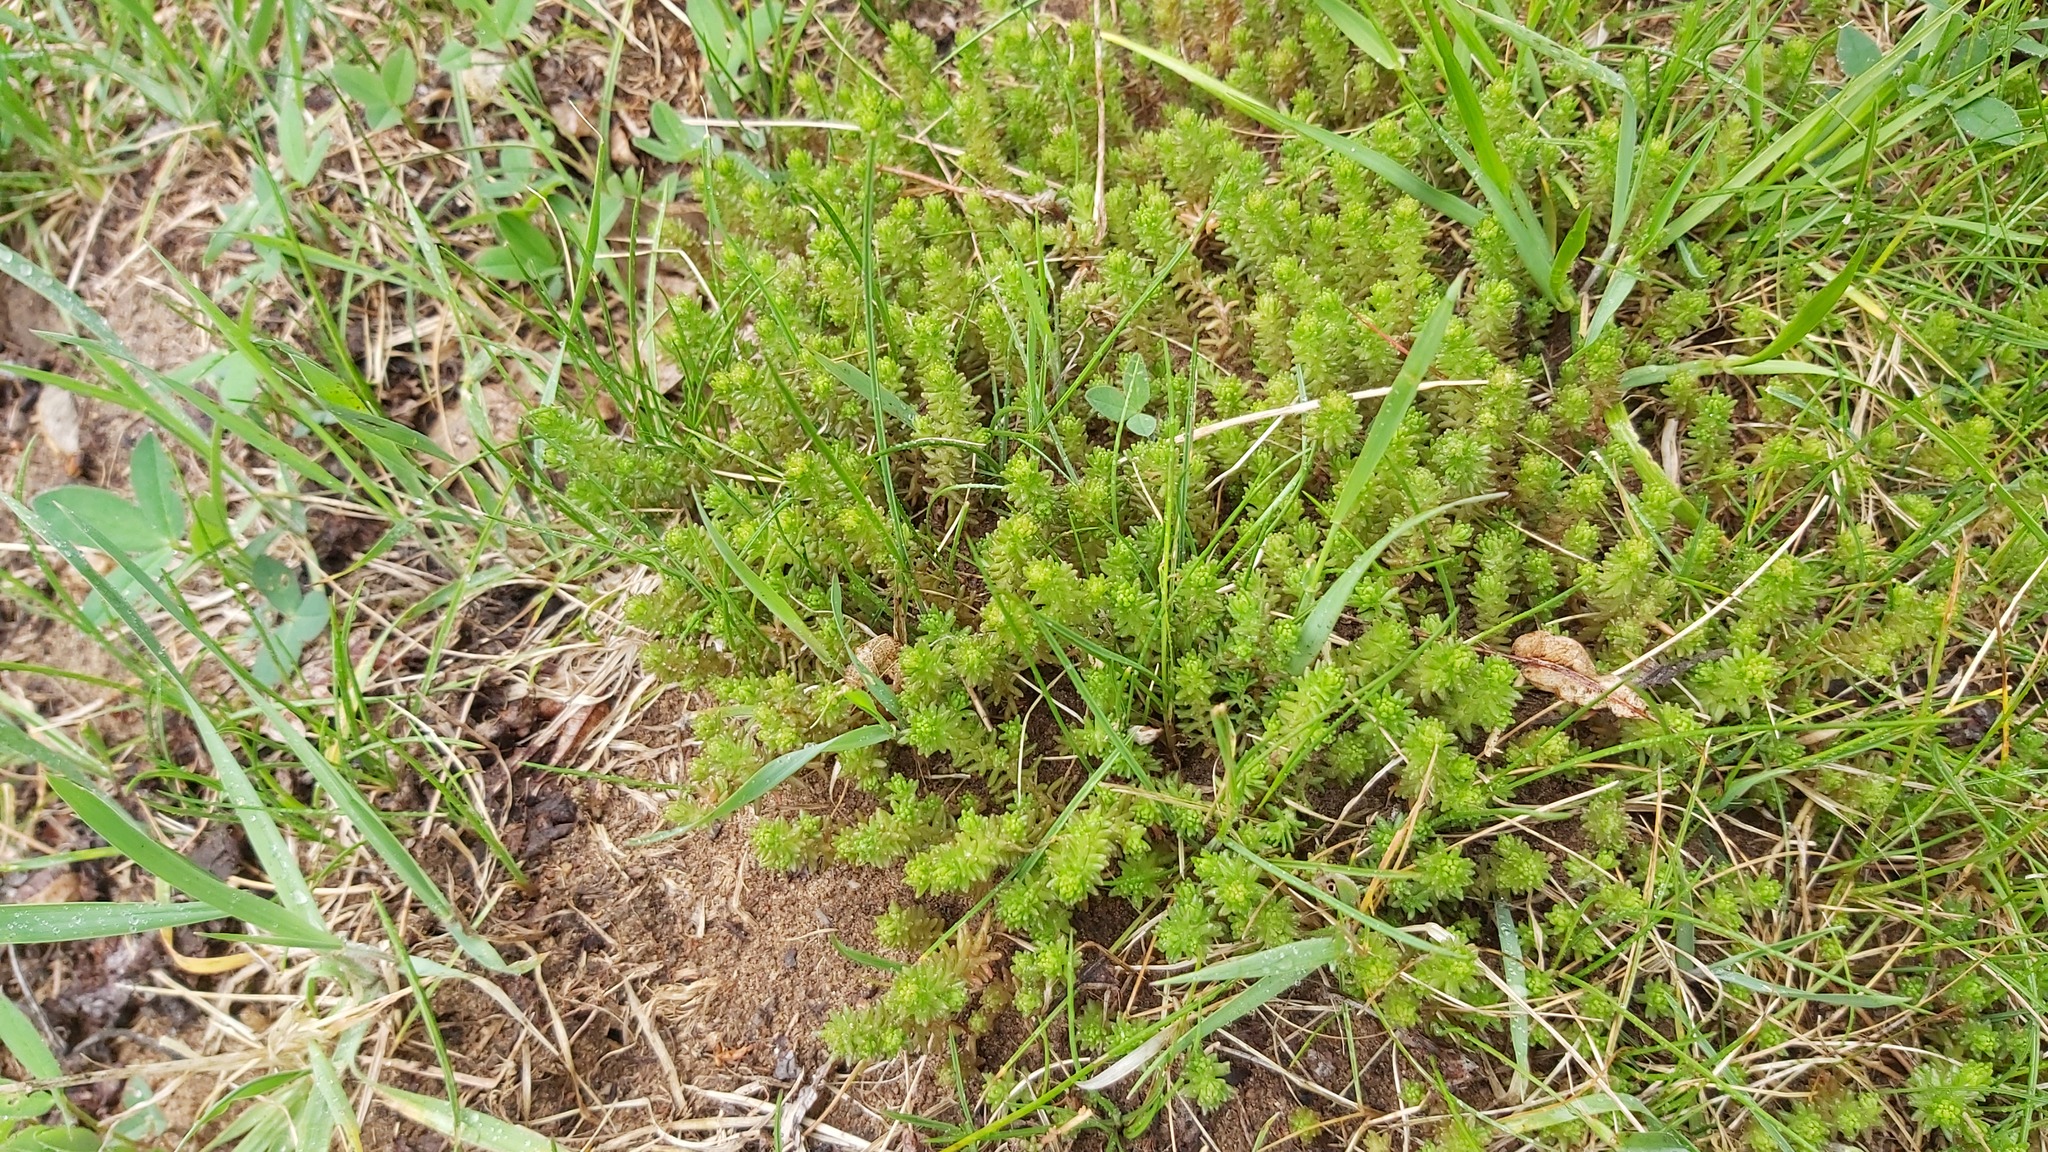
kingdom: Plantae
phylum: Tracheophyta
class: Magnoliopsida
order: Saxifragales
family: Crassulaceae
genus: Sedum
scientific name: Sedum sexangulare
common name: Tasteless stonecrop
